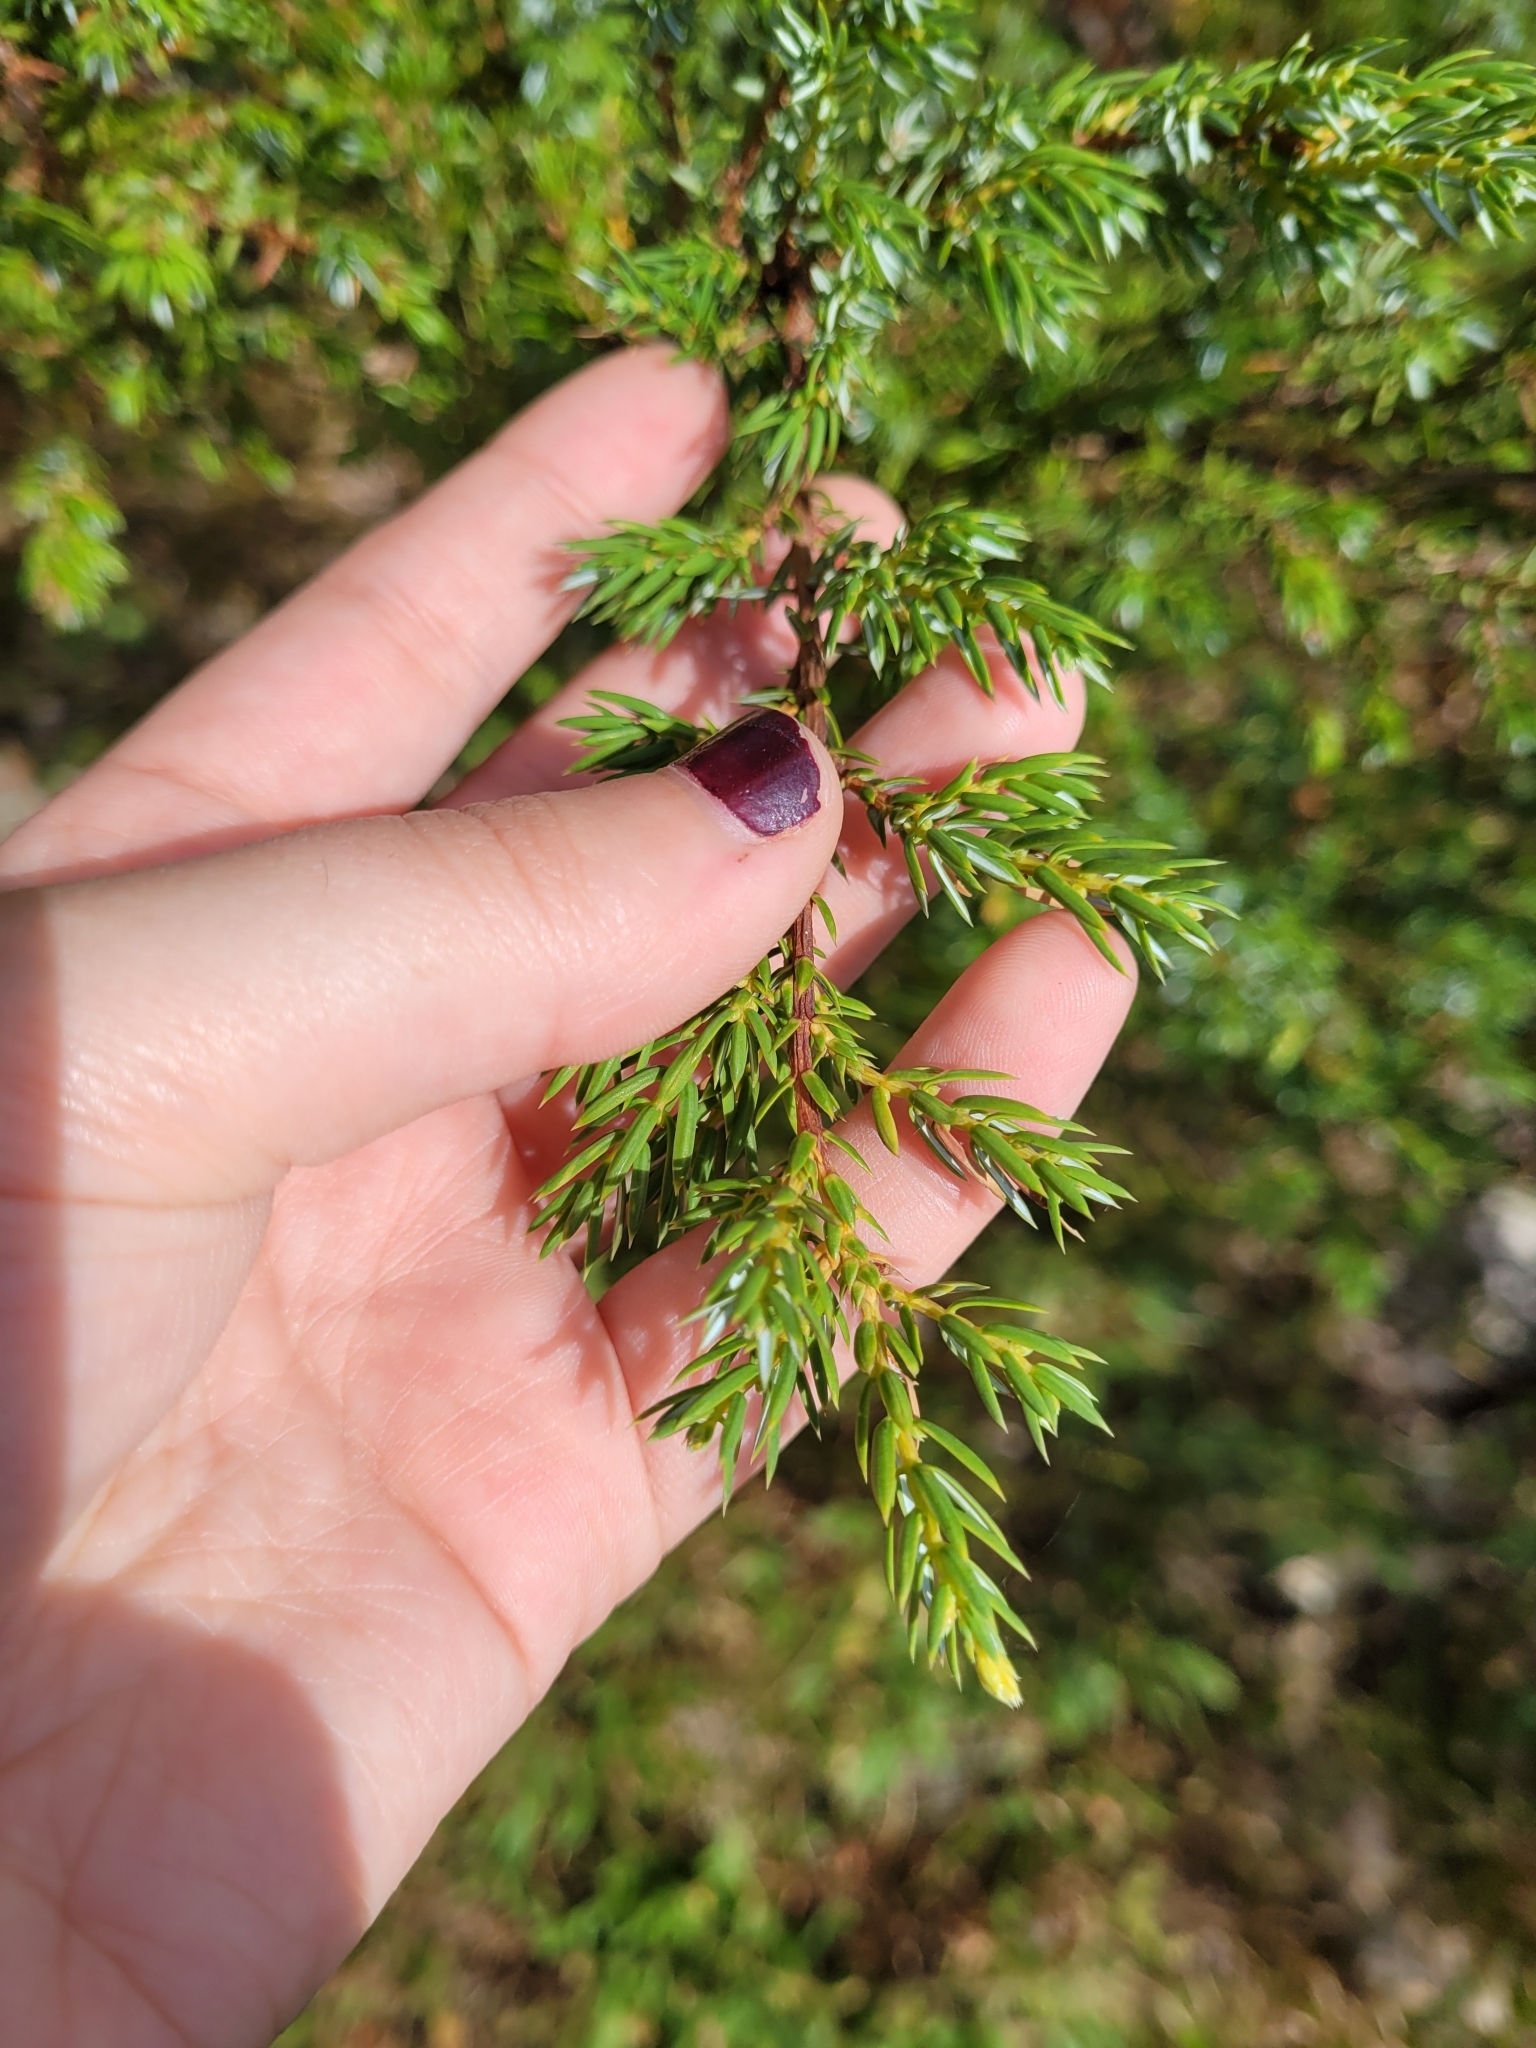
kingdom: Plantae
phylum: Tracheophyta
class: Pinopsida
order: Pinales
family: Cupressaceae
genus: Juniperus
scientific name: Juniperus communis
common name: Common juniper
